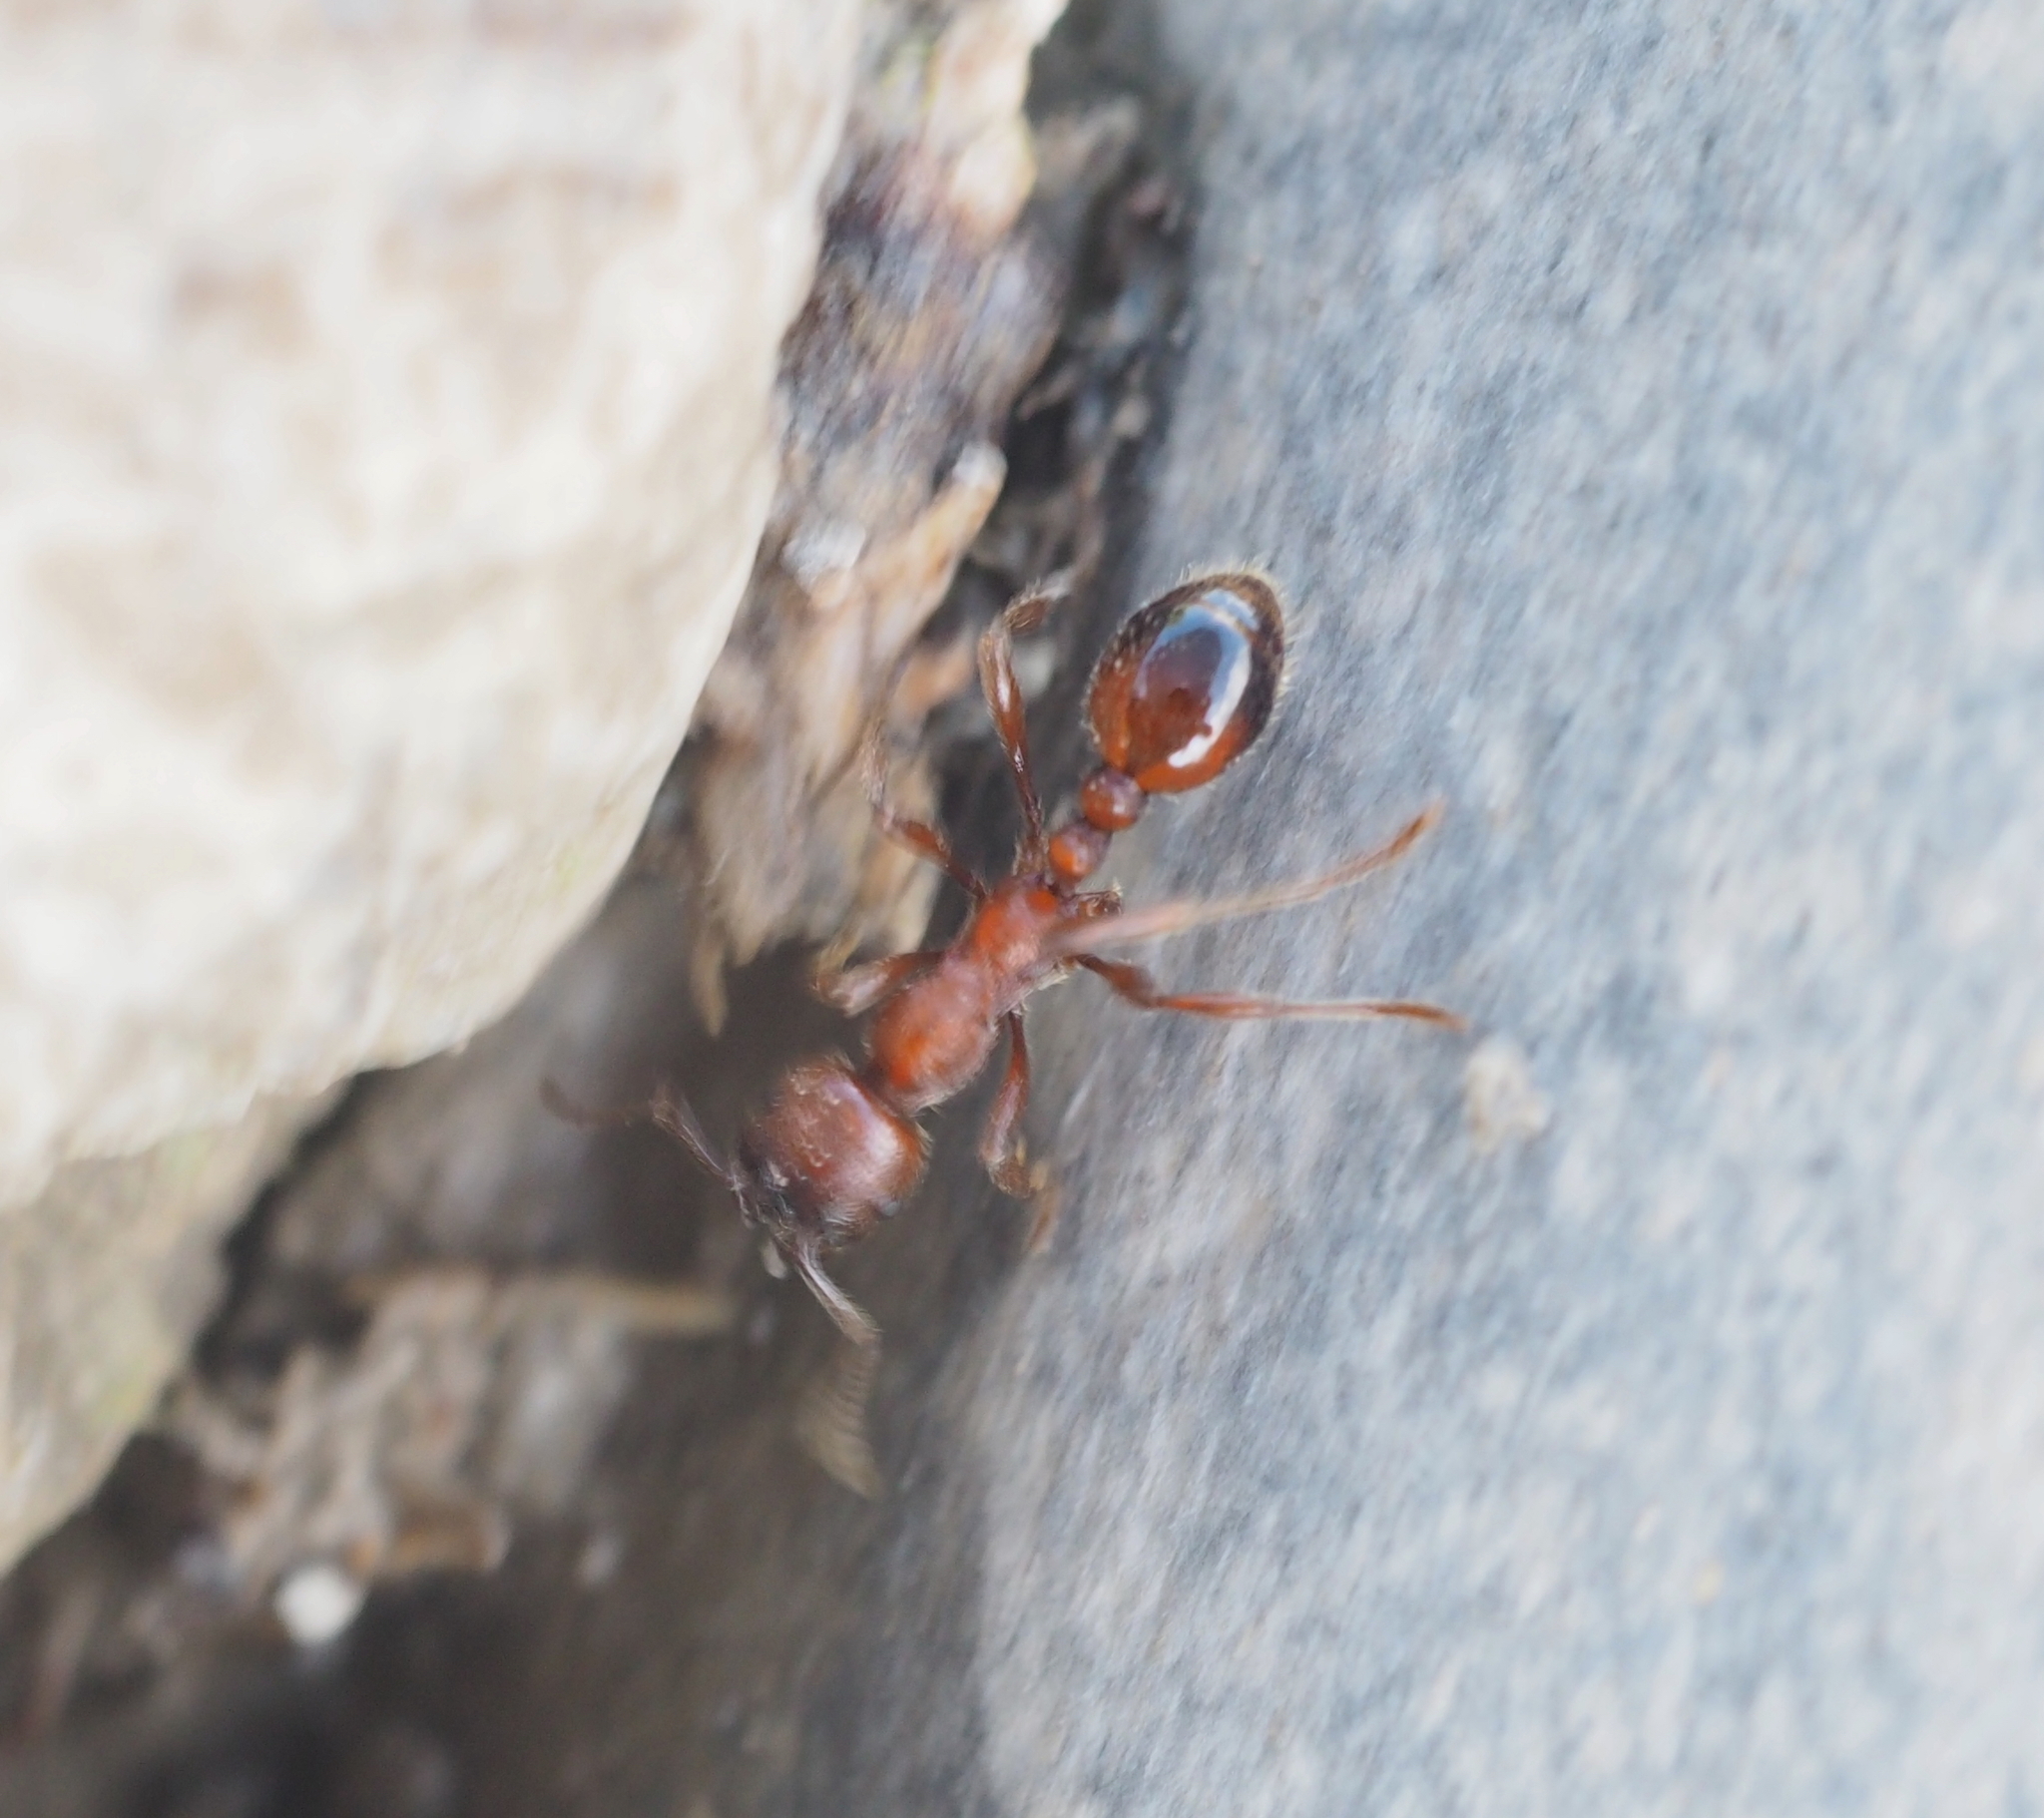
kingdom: Animalia
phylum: Arthropoda
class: Insecta
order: Hymenoptera
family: Formicidae
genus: Manica
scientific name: Manica rubida
